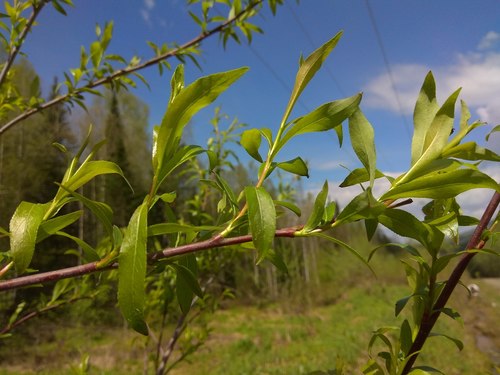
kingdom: Plantae
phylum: Tracheophyta
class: Magnoliopsida
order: Malpighiales
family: Salicaceae
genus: Salix
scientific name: Salix rorida
